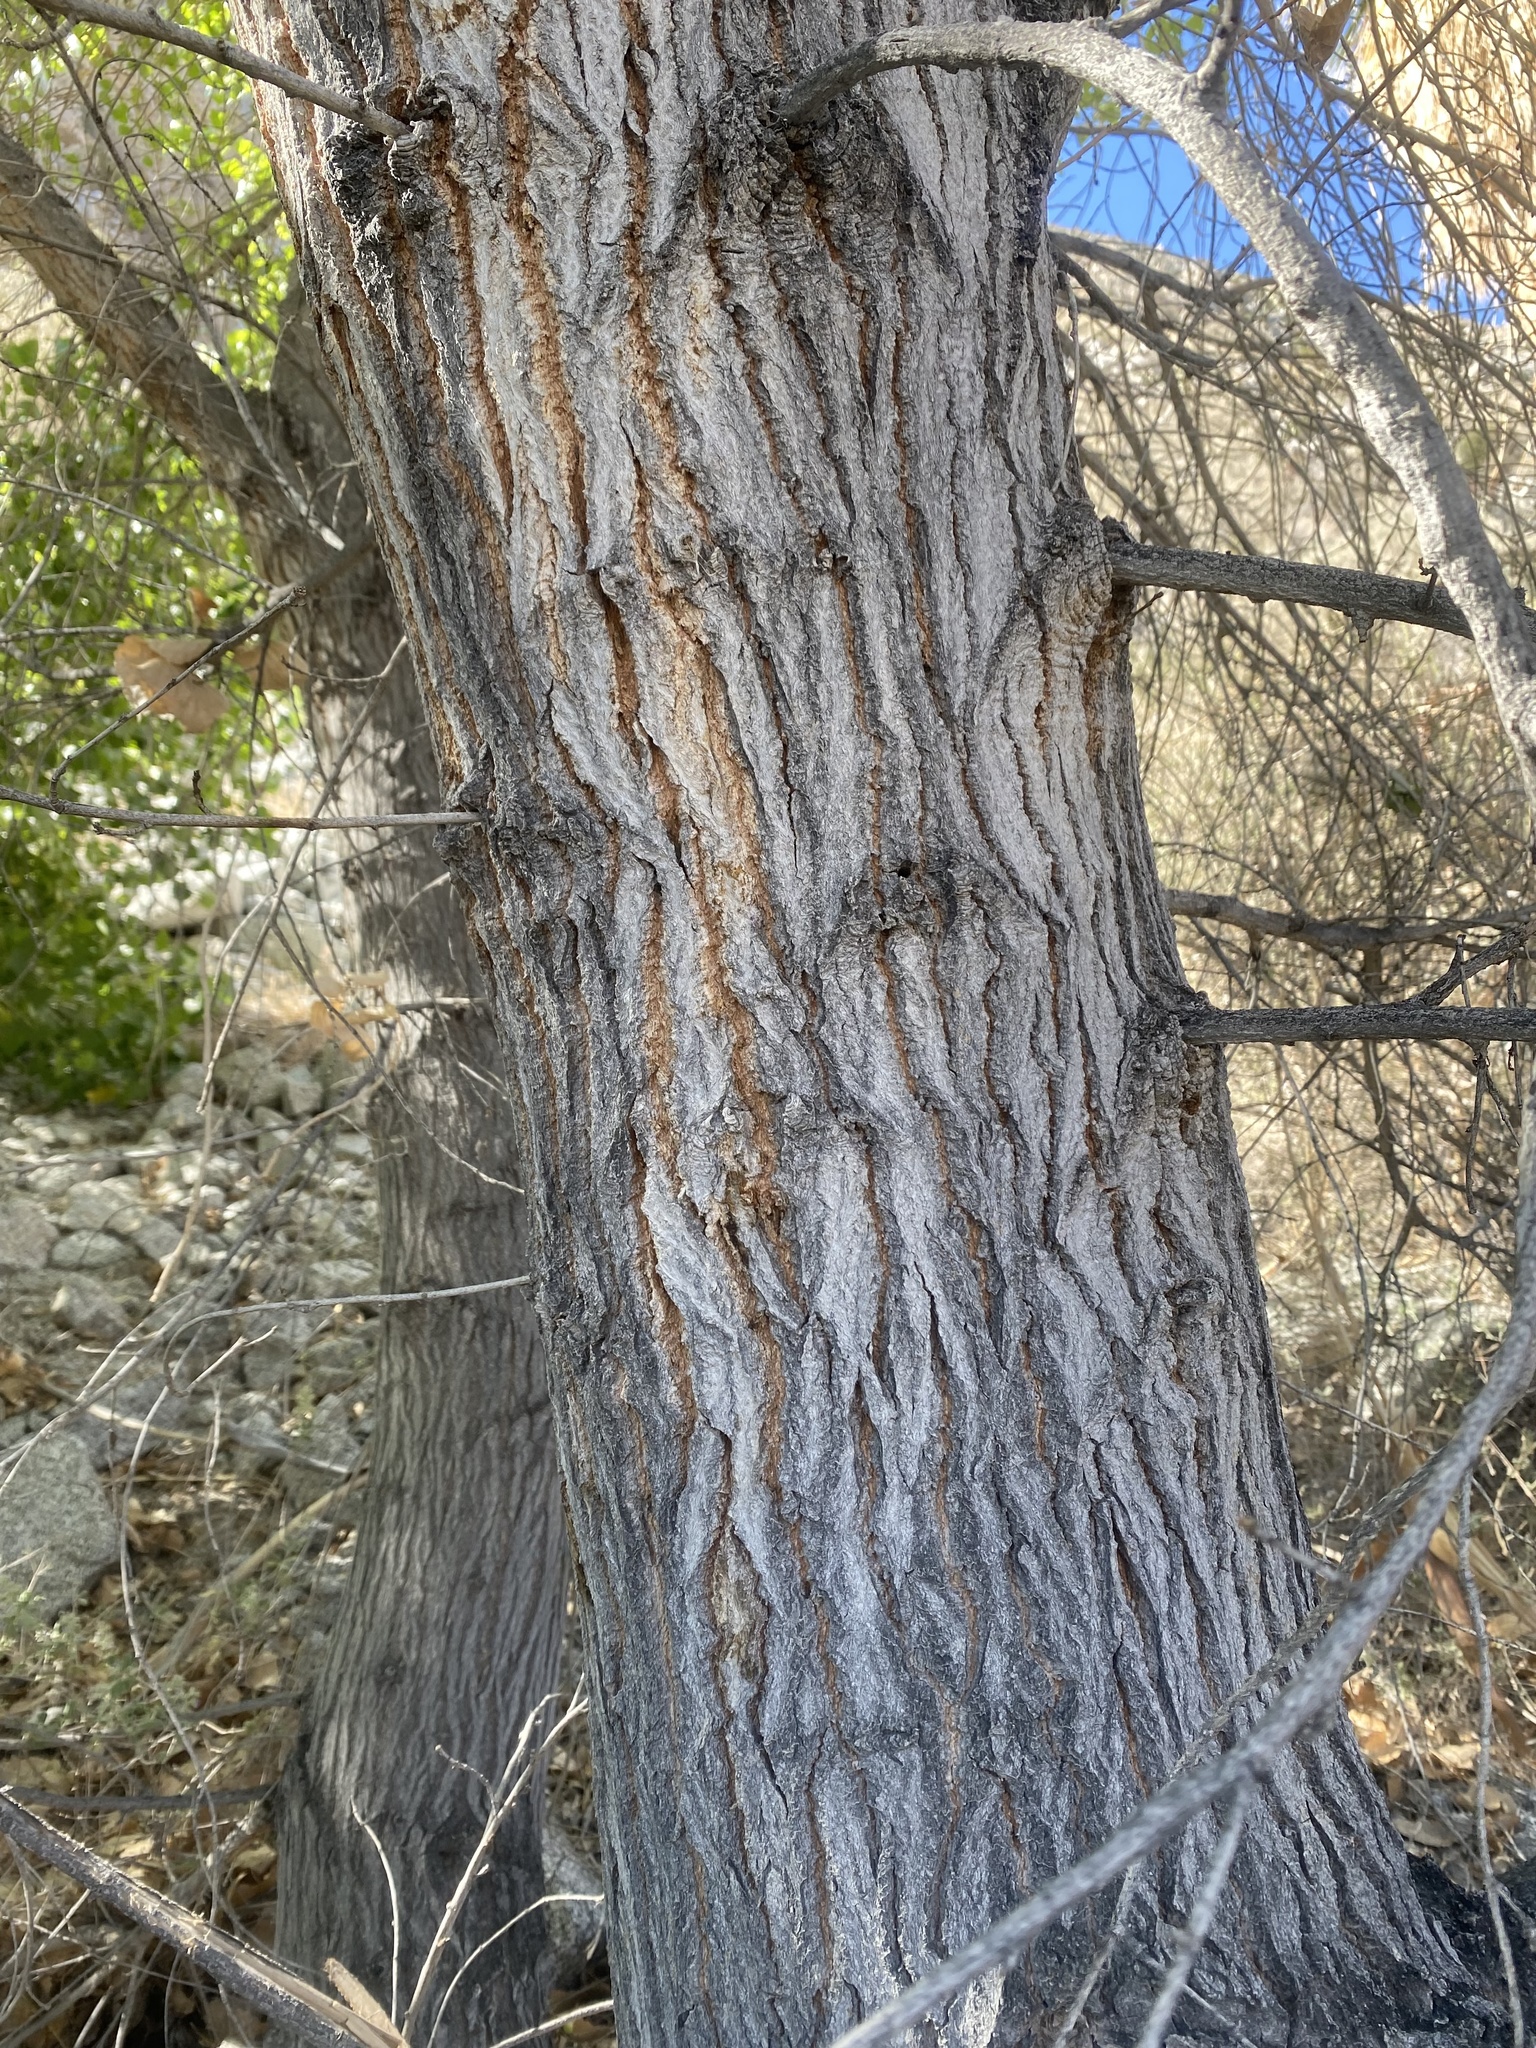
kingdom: Plantae
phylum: Tracheophyta
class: Magnoliopsida
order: Malpighiales
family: Salicaceae
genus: Populus
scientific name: Populus fremontii
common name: Fremont's cottonwood
